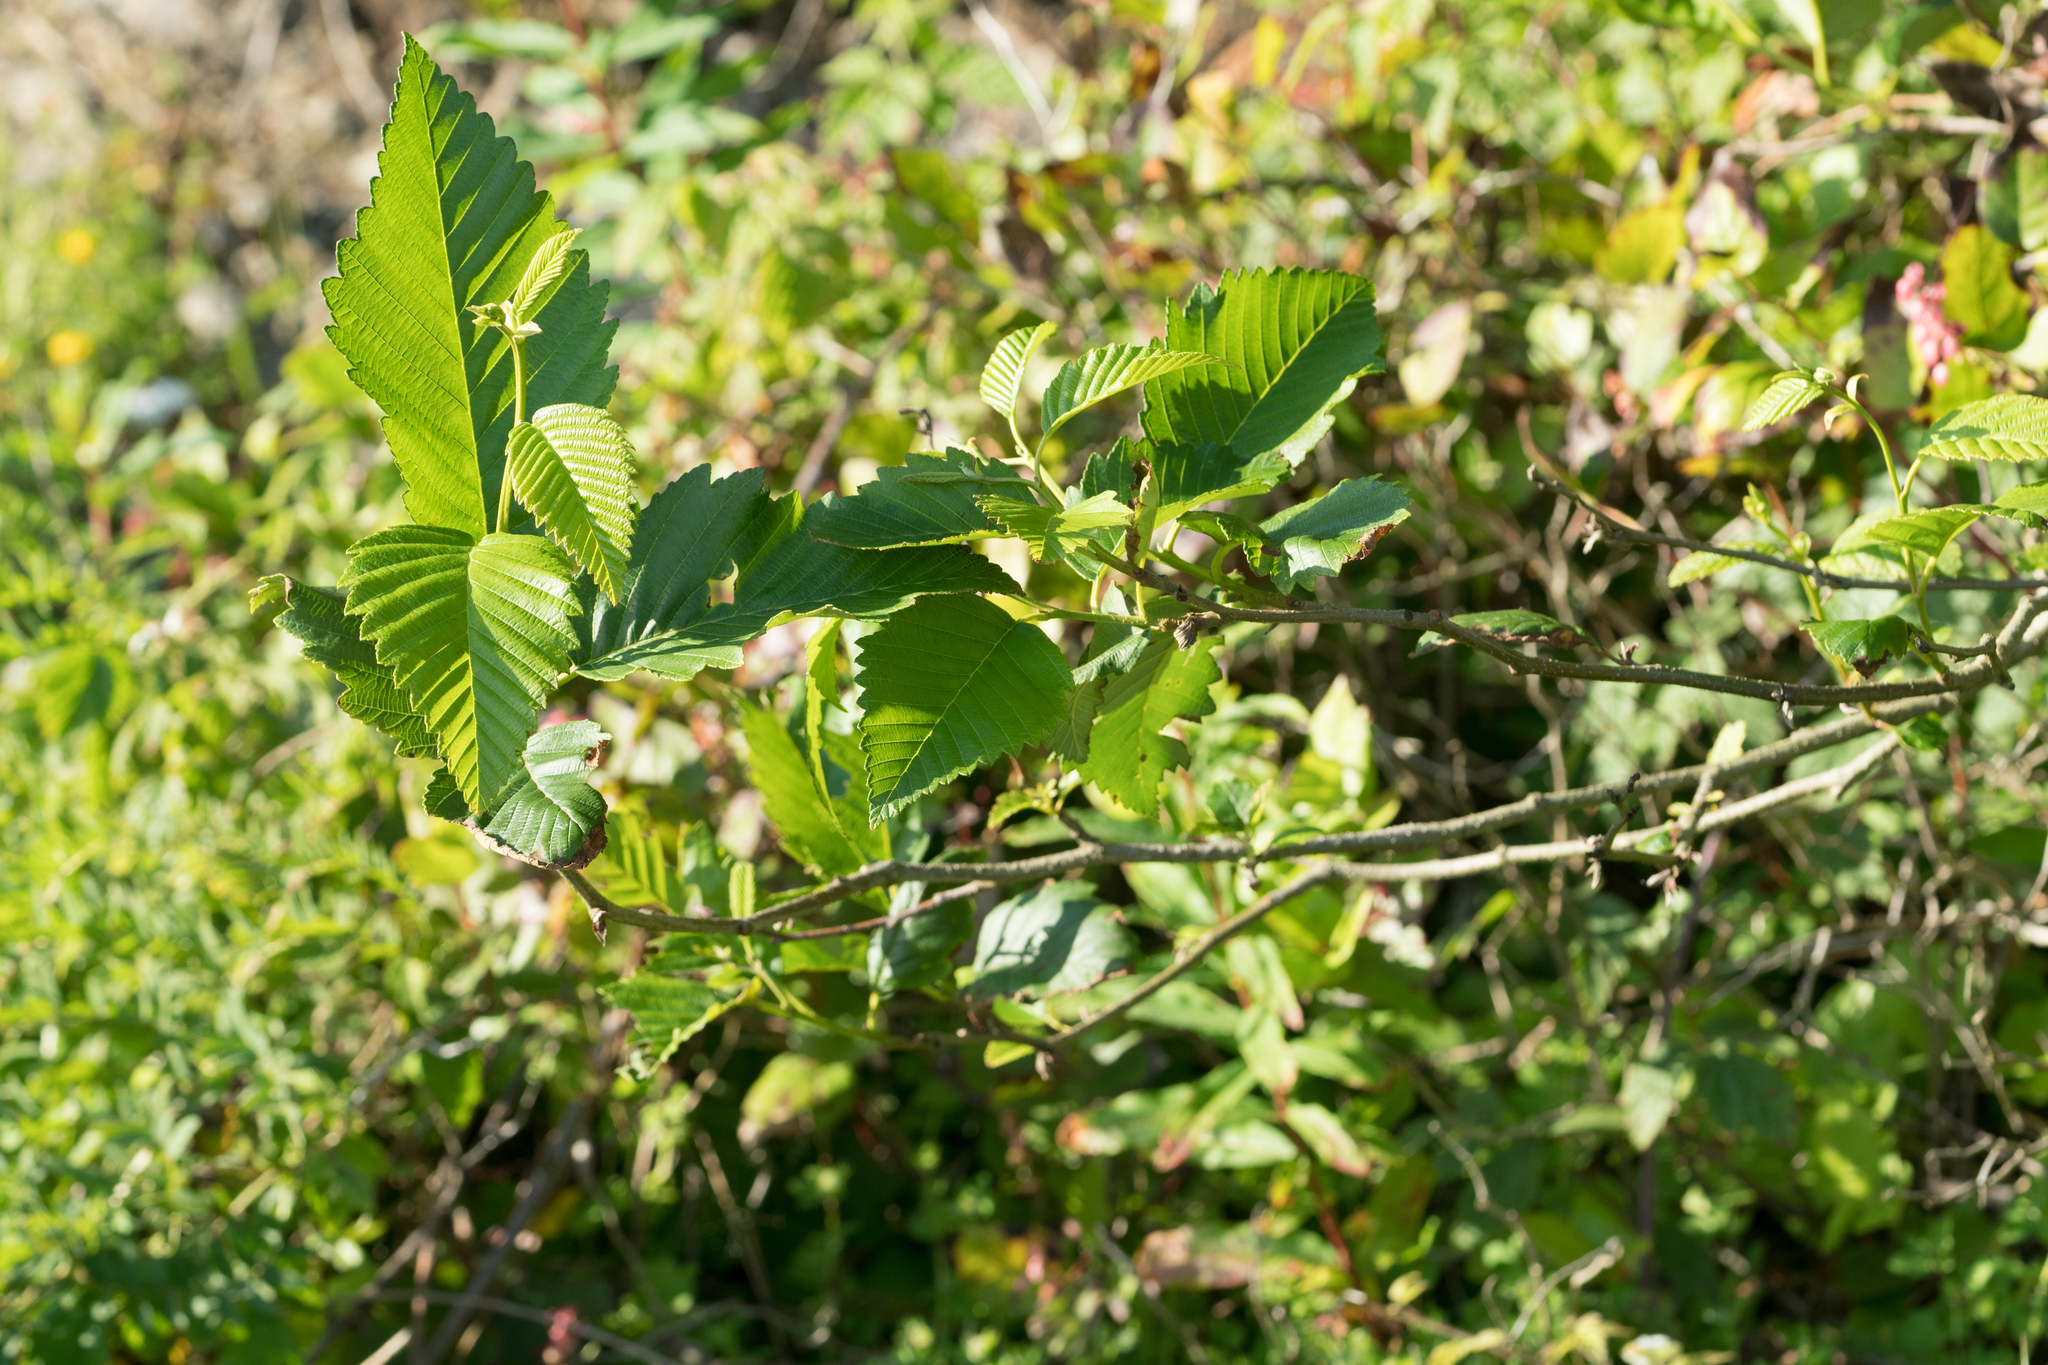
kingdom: Plantae
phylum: Tracheophyta
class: Magnoliopsida
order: Fagales
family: Betulaceae
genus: Alnus
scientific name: Alnus rubra
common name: Red alder
